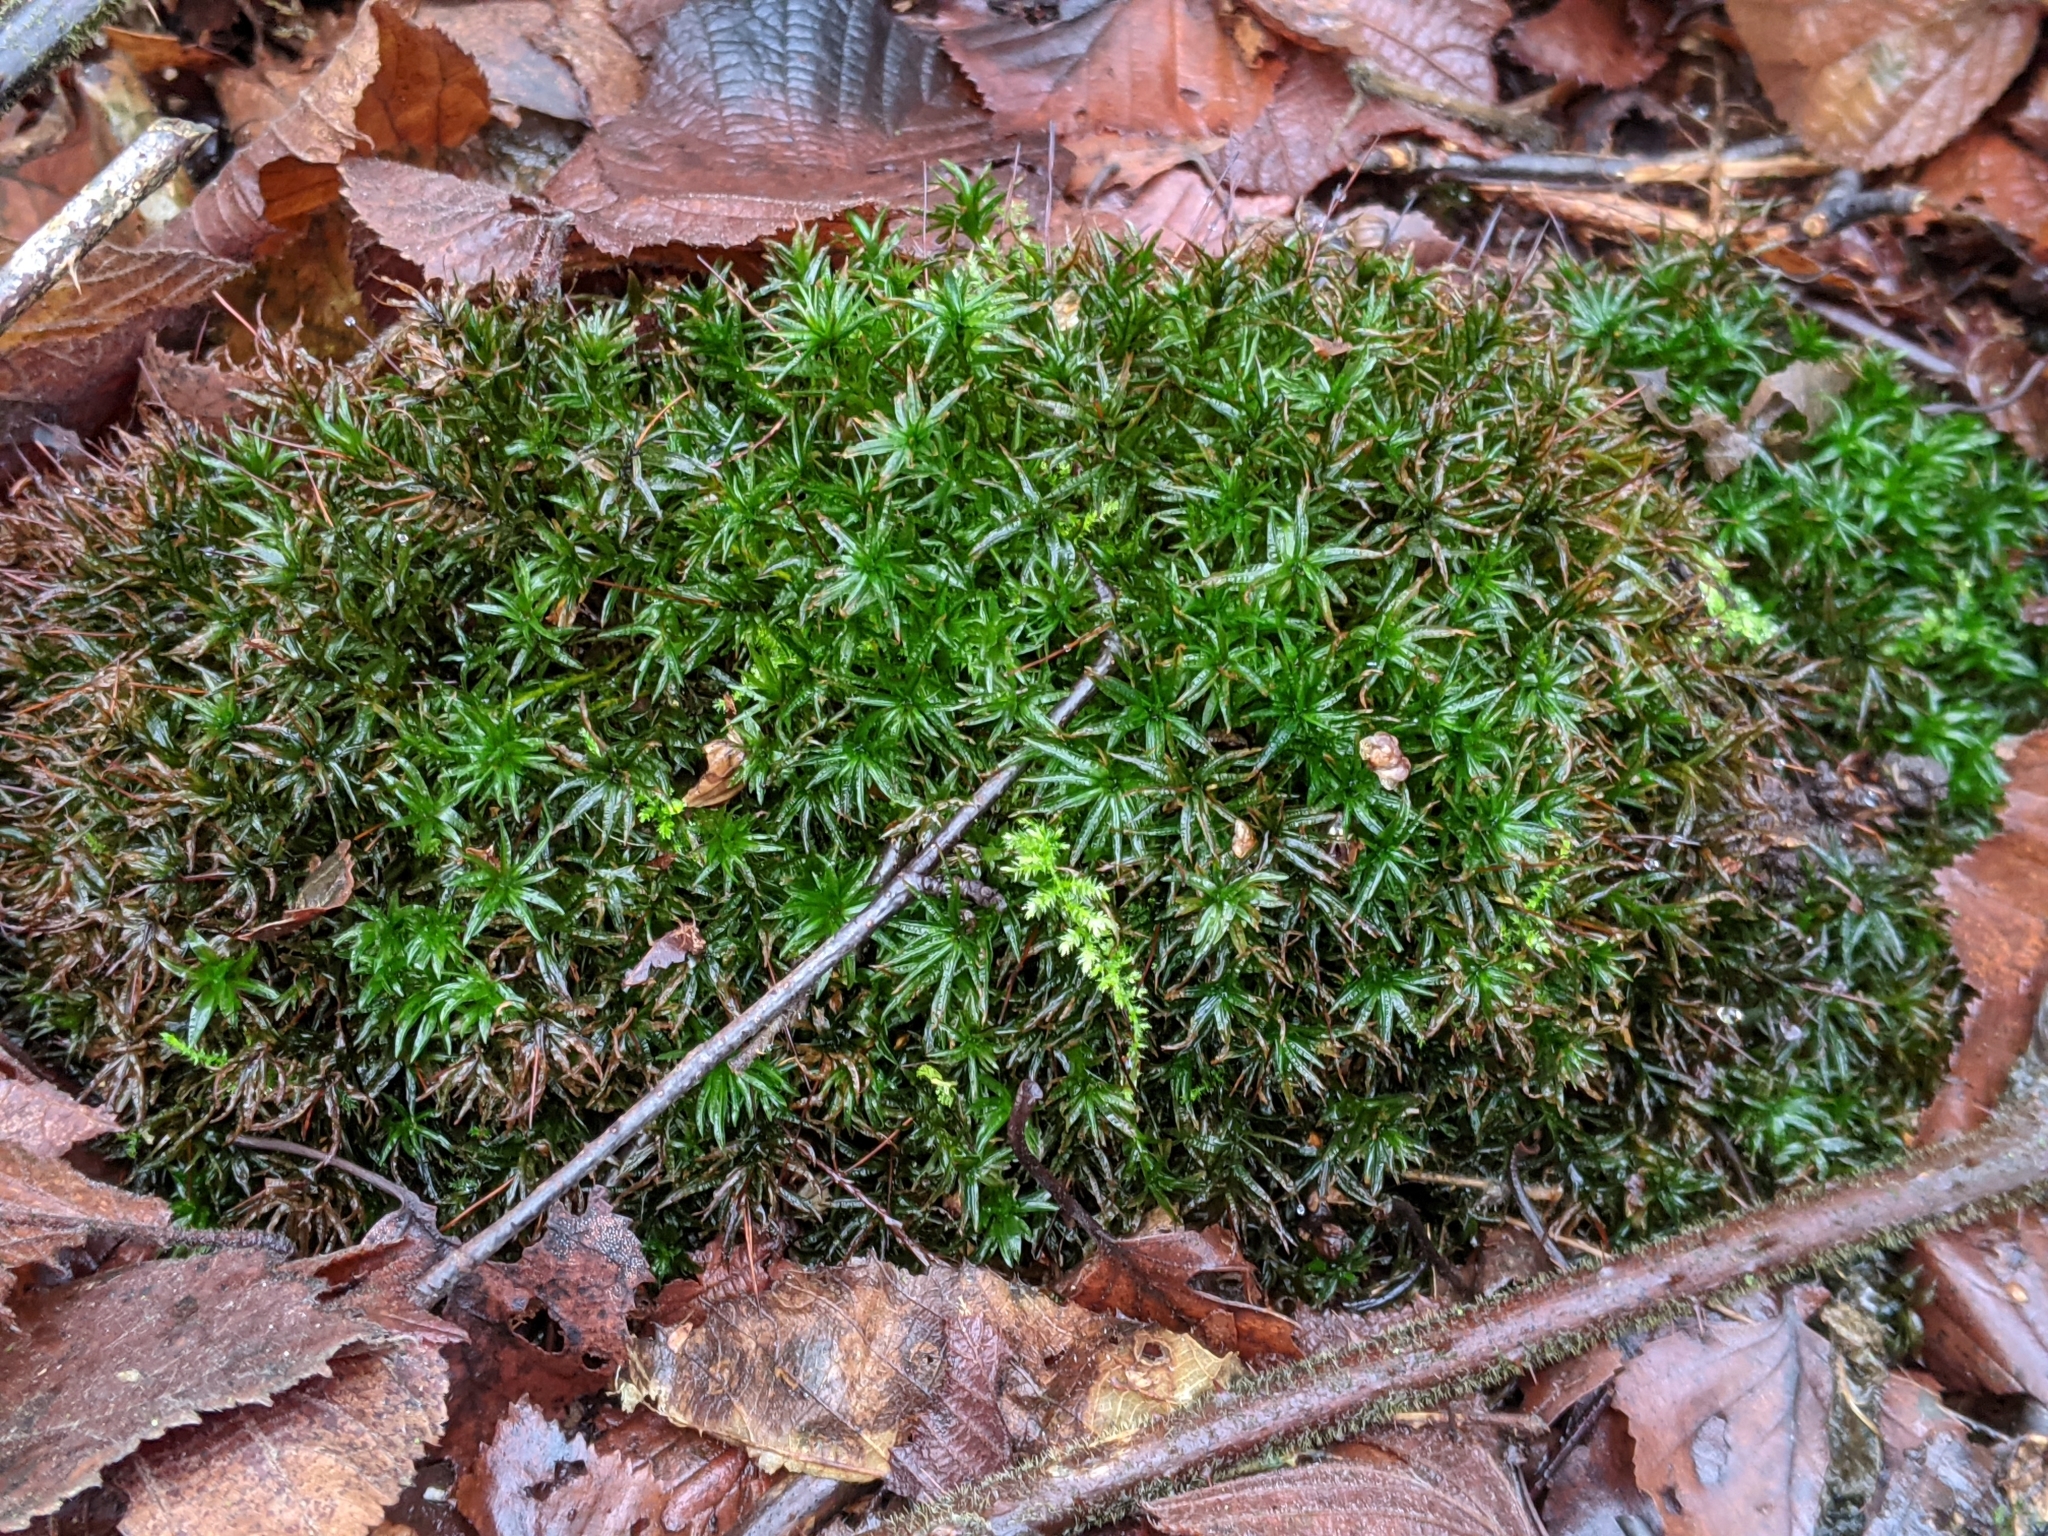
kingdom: Plantae
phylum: Bryophyta
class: Polytrichopsida
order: Polytrichales
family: Polytrichaceae
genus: Atrichum
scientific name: Atrichum undulatum
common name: Common smoothcap
